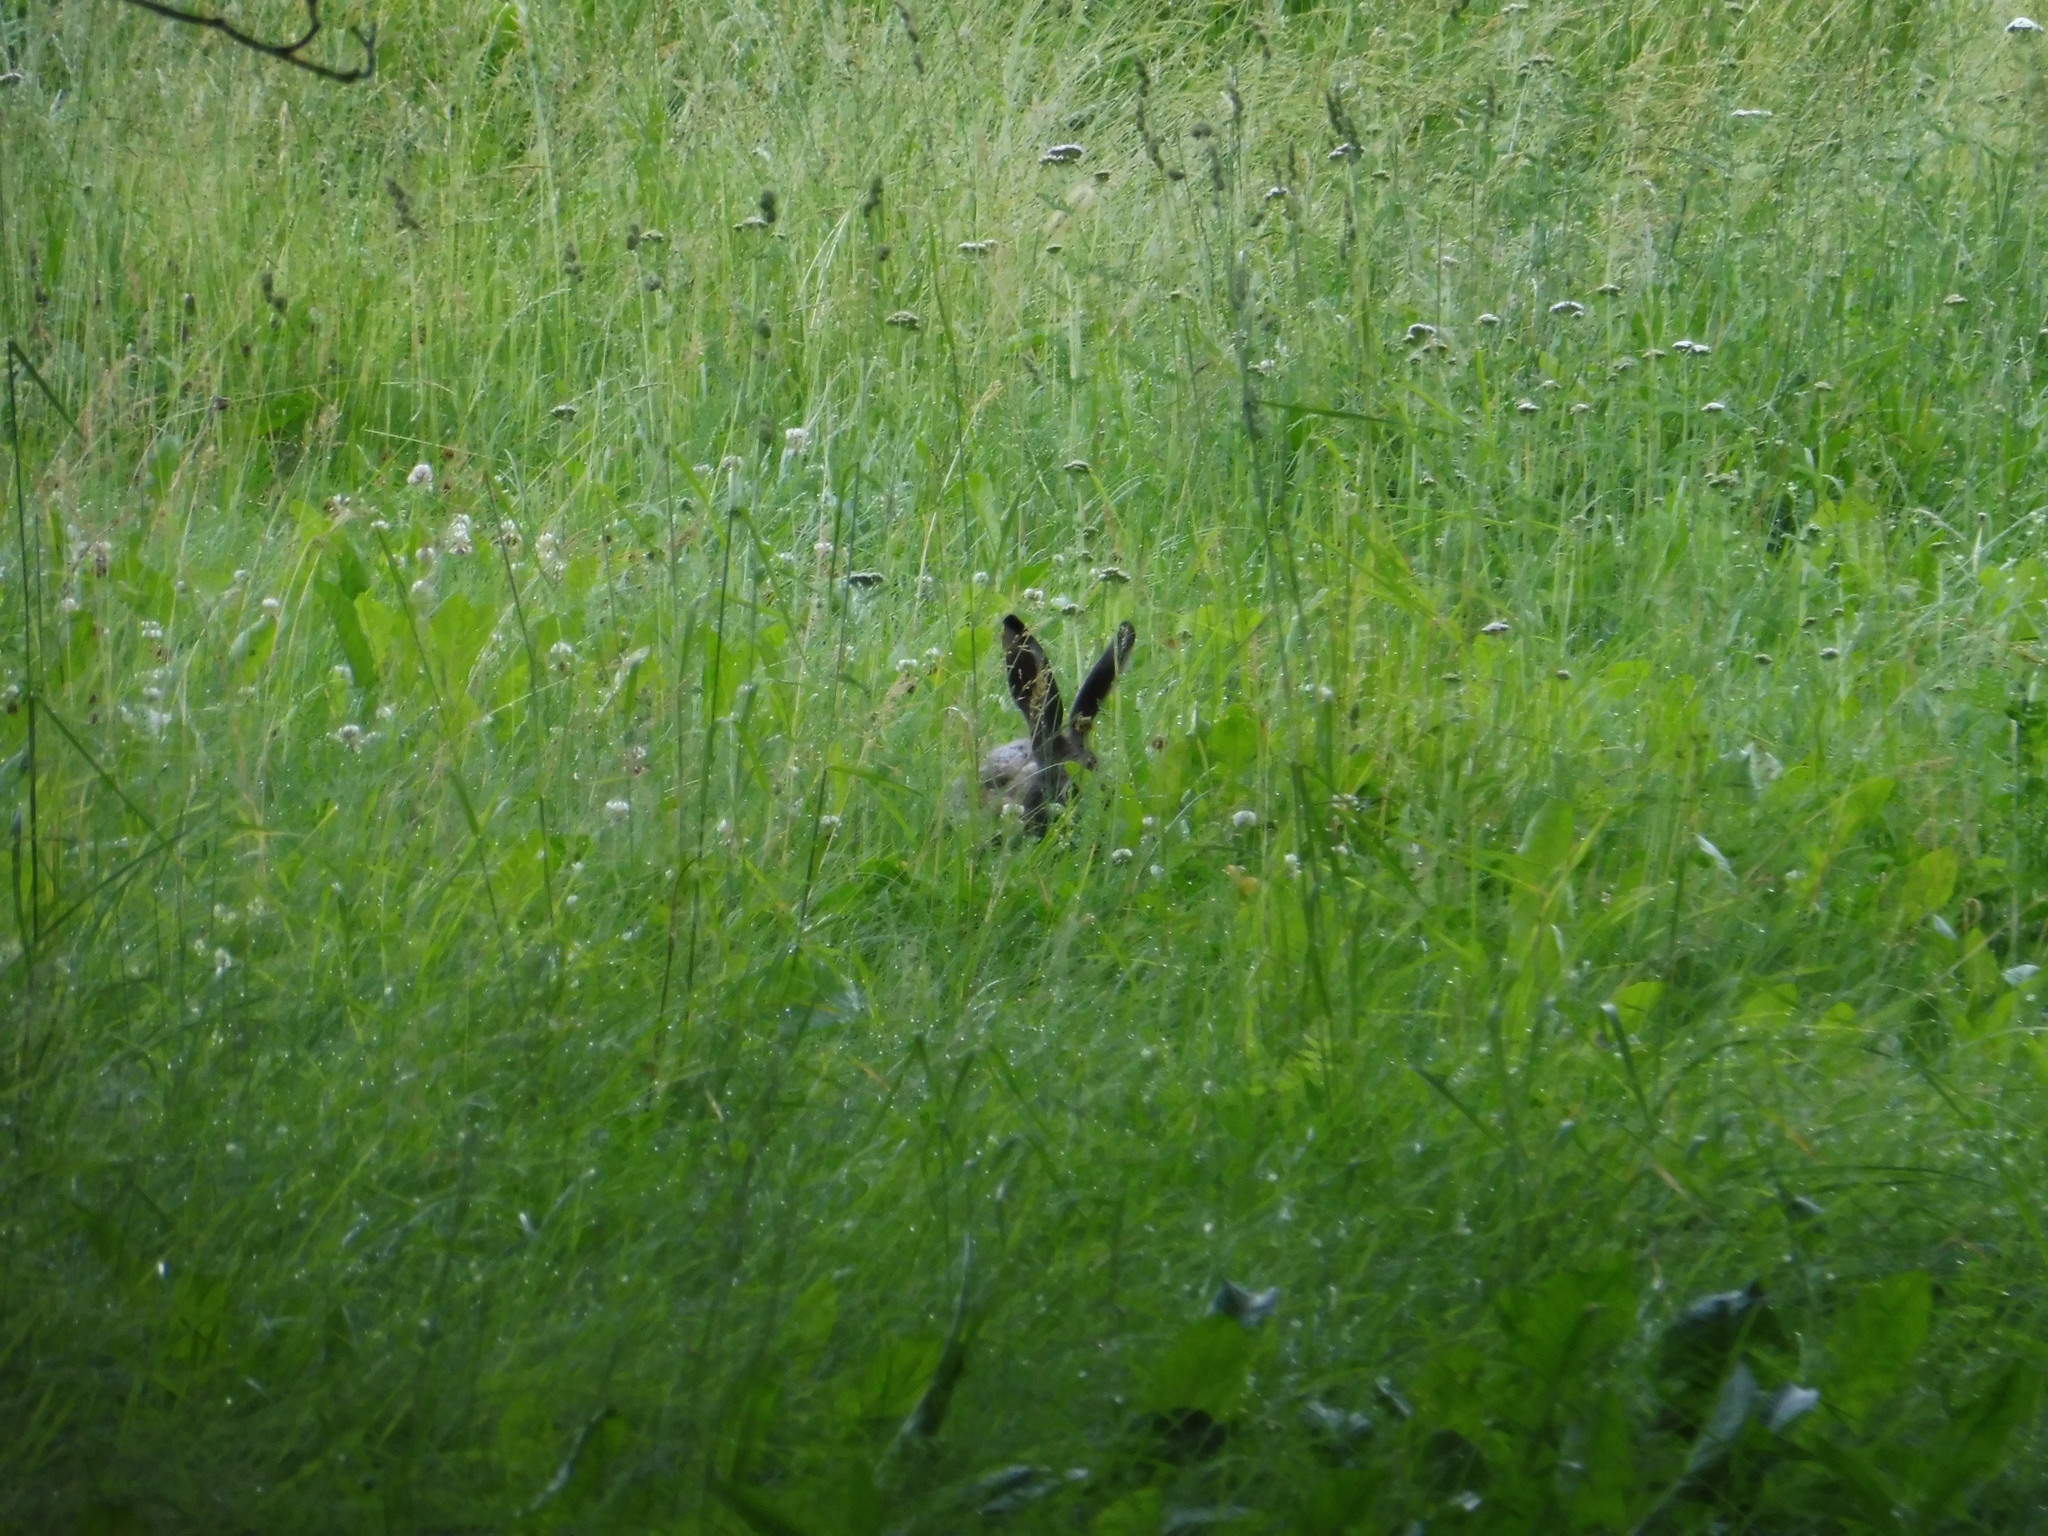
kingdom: Animalia
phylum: Chordata
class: Mammalia
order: Lagomorpha
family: Leporidae
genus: Lepus
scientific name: Lepus europaeus
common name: European hare
